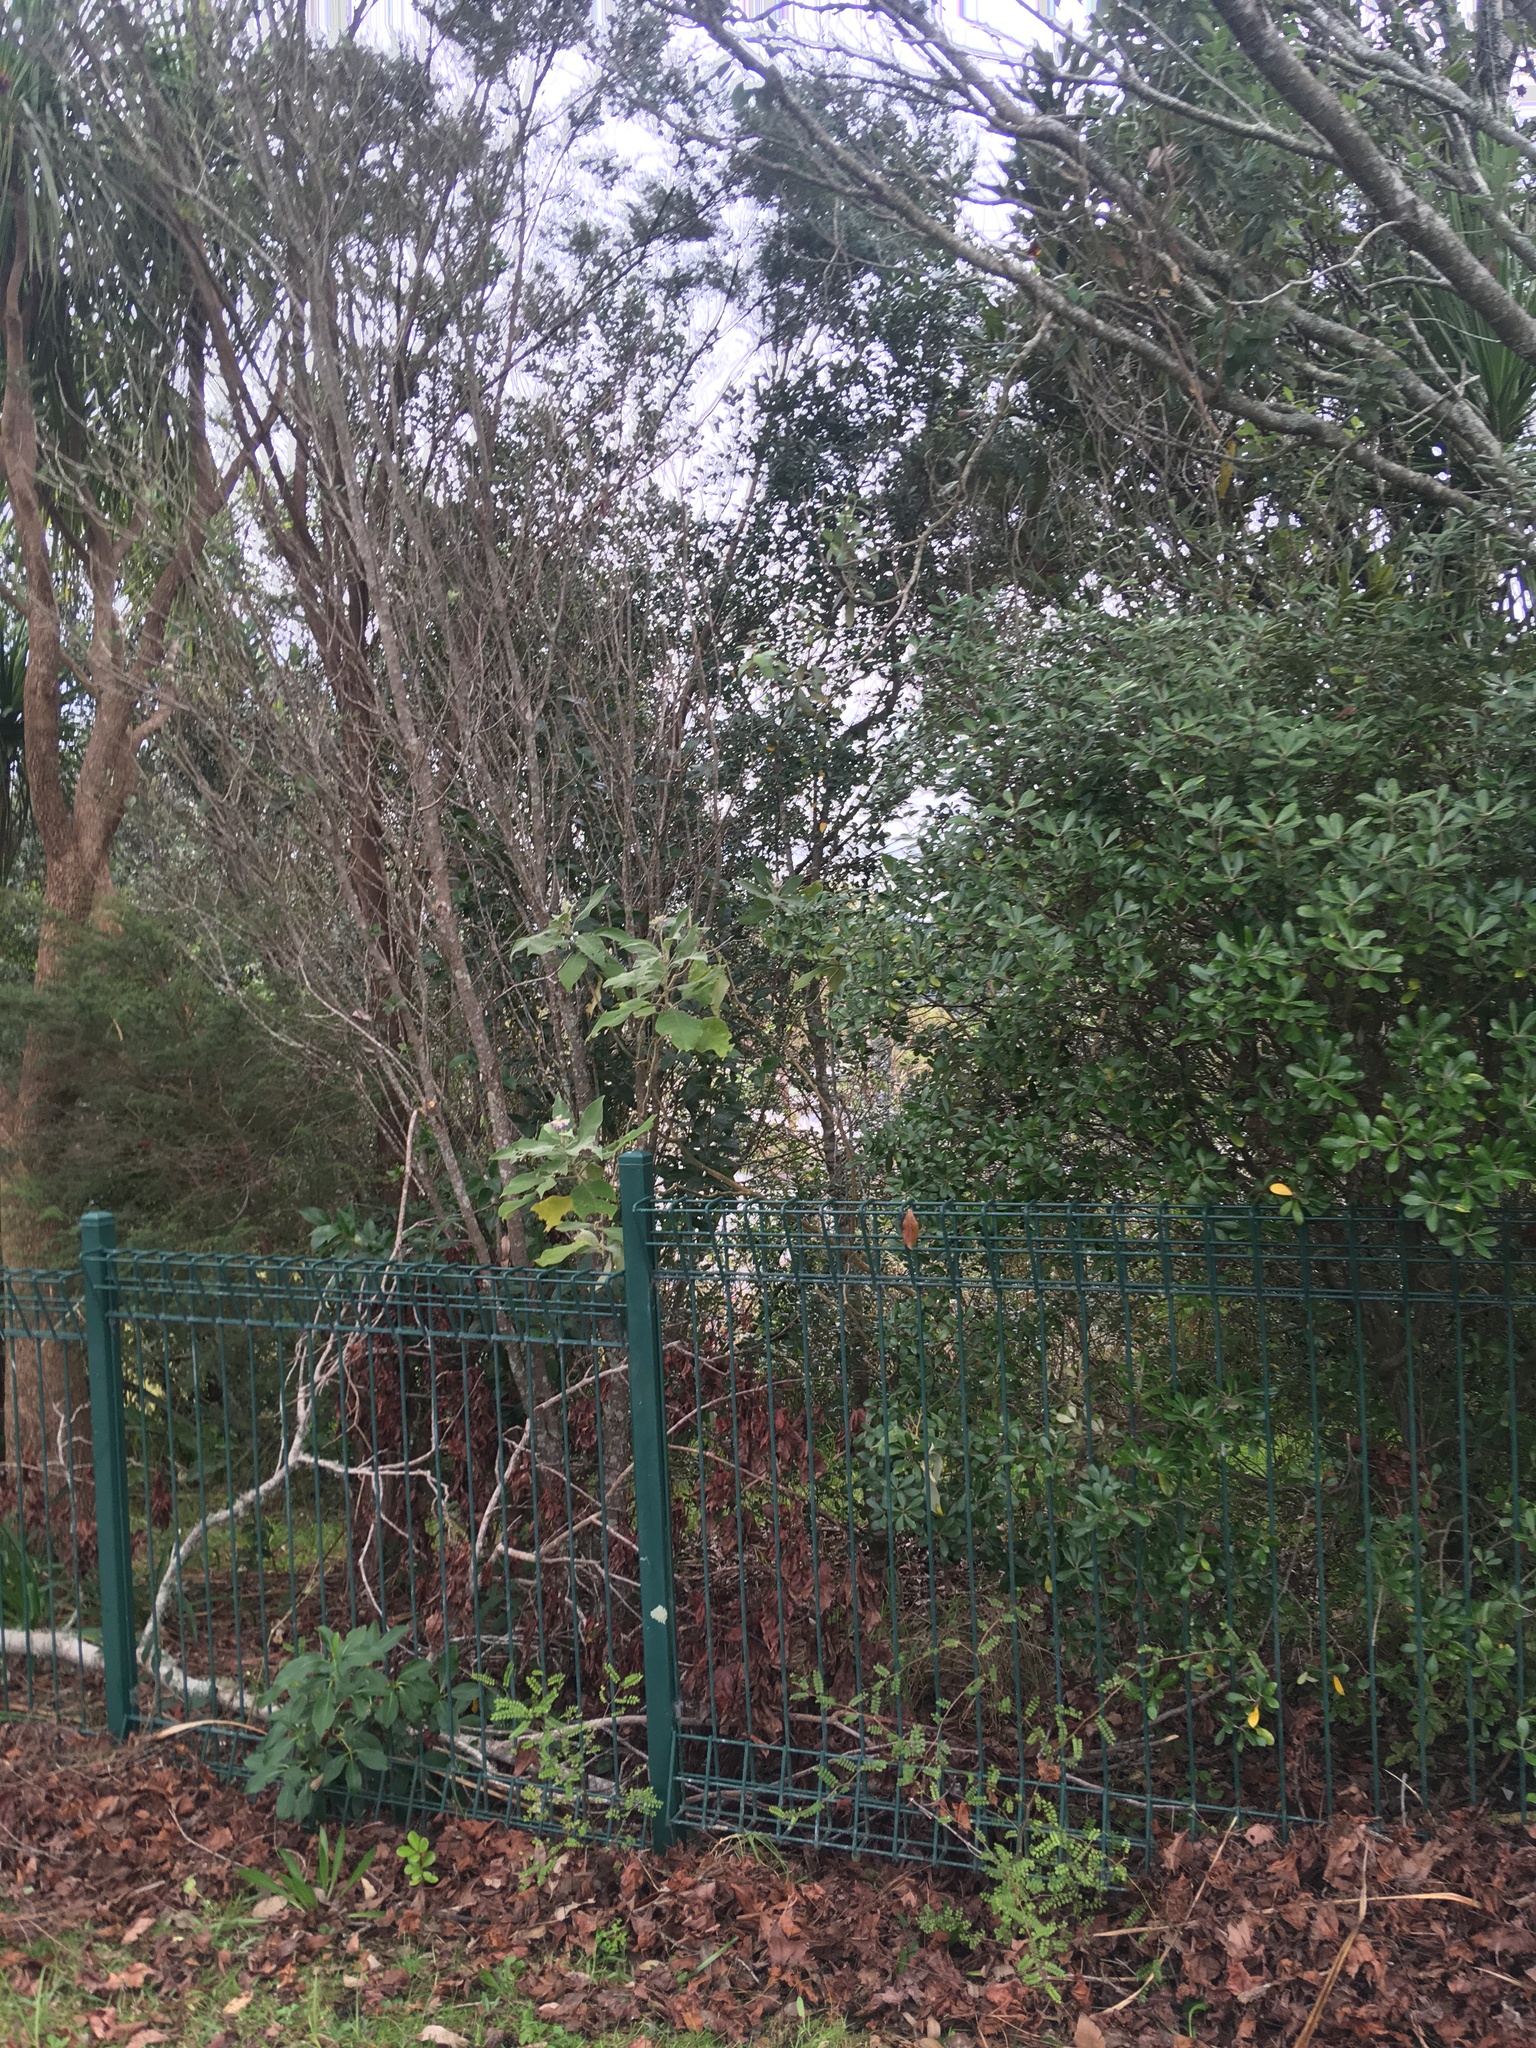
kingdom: Plantae
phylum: Tracheophyta
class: Magnoliopsida
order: Solanales
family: Solanaceae
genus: Solanum
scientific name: Solanum mauritianum
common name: Earleaf nightshade
